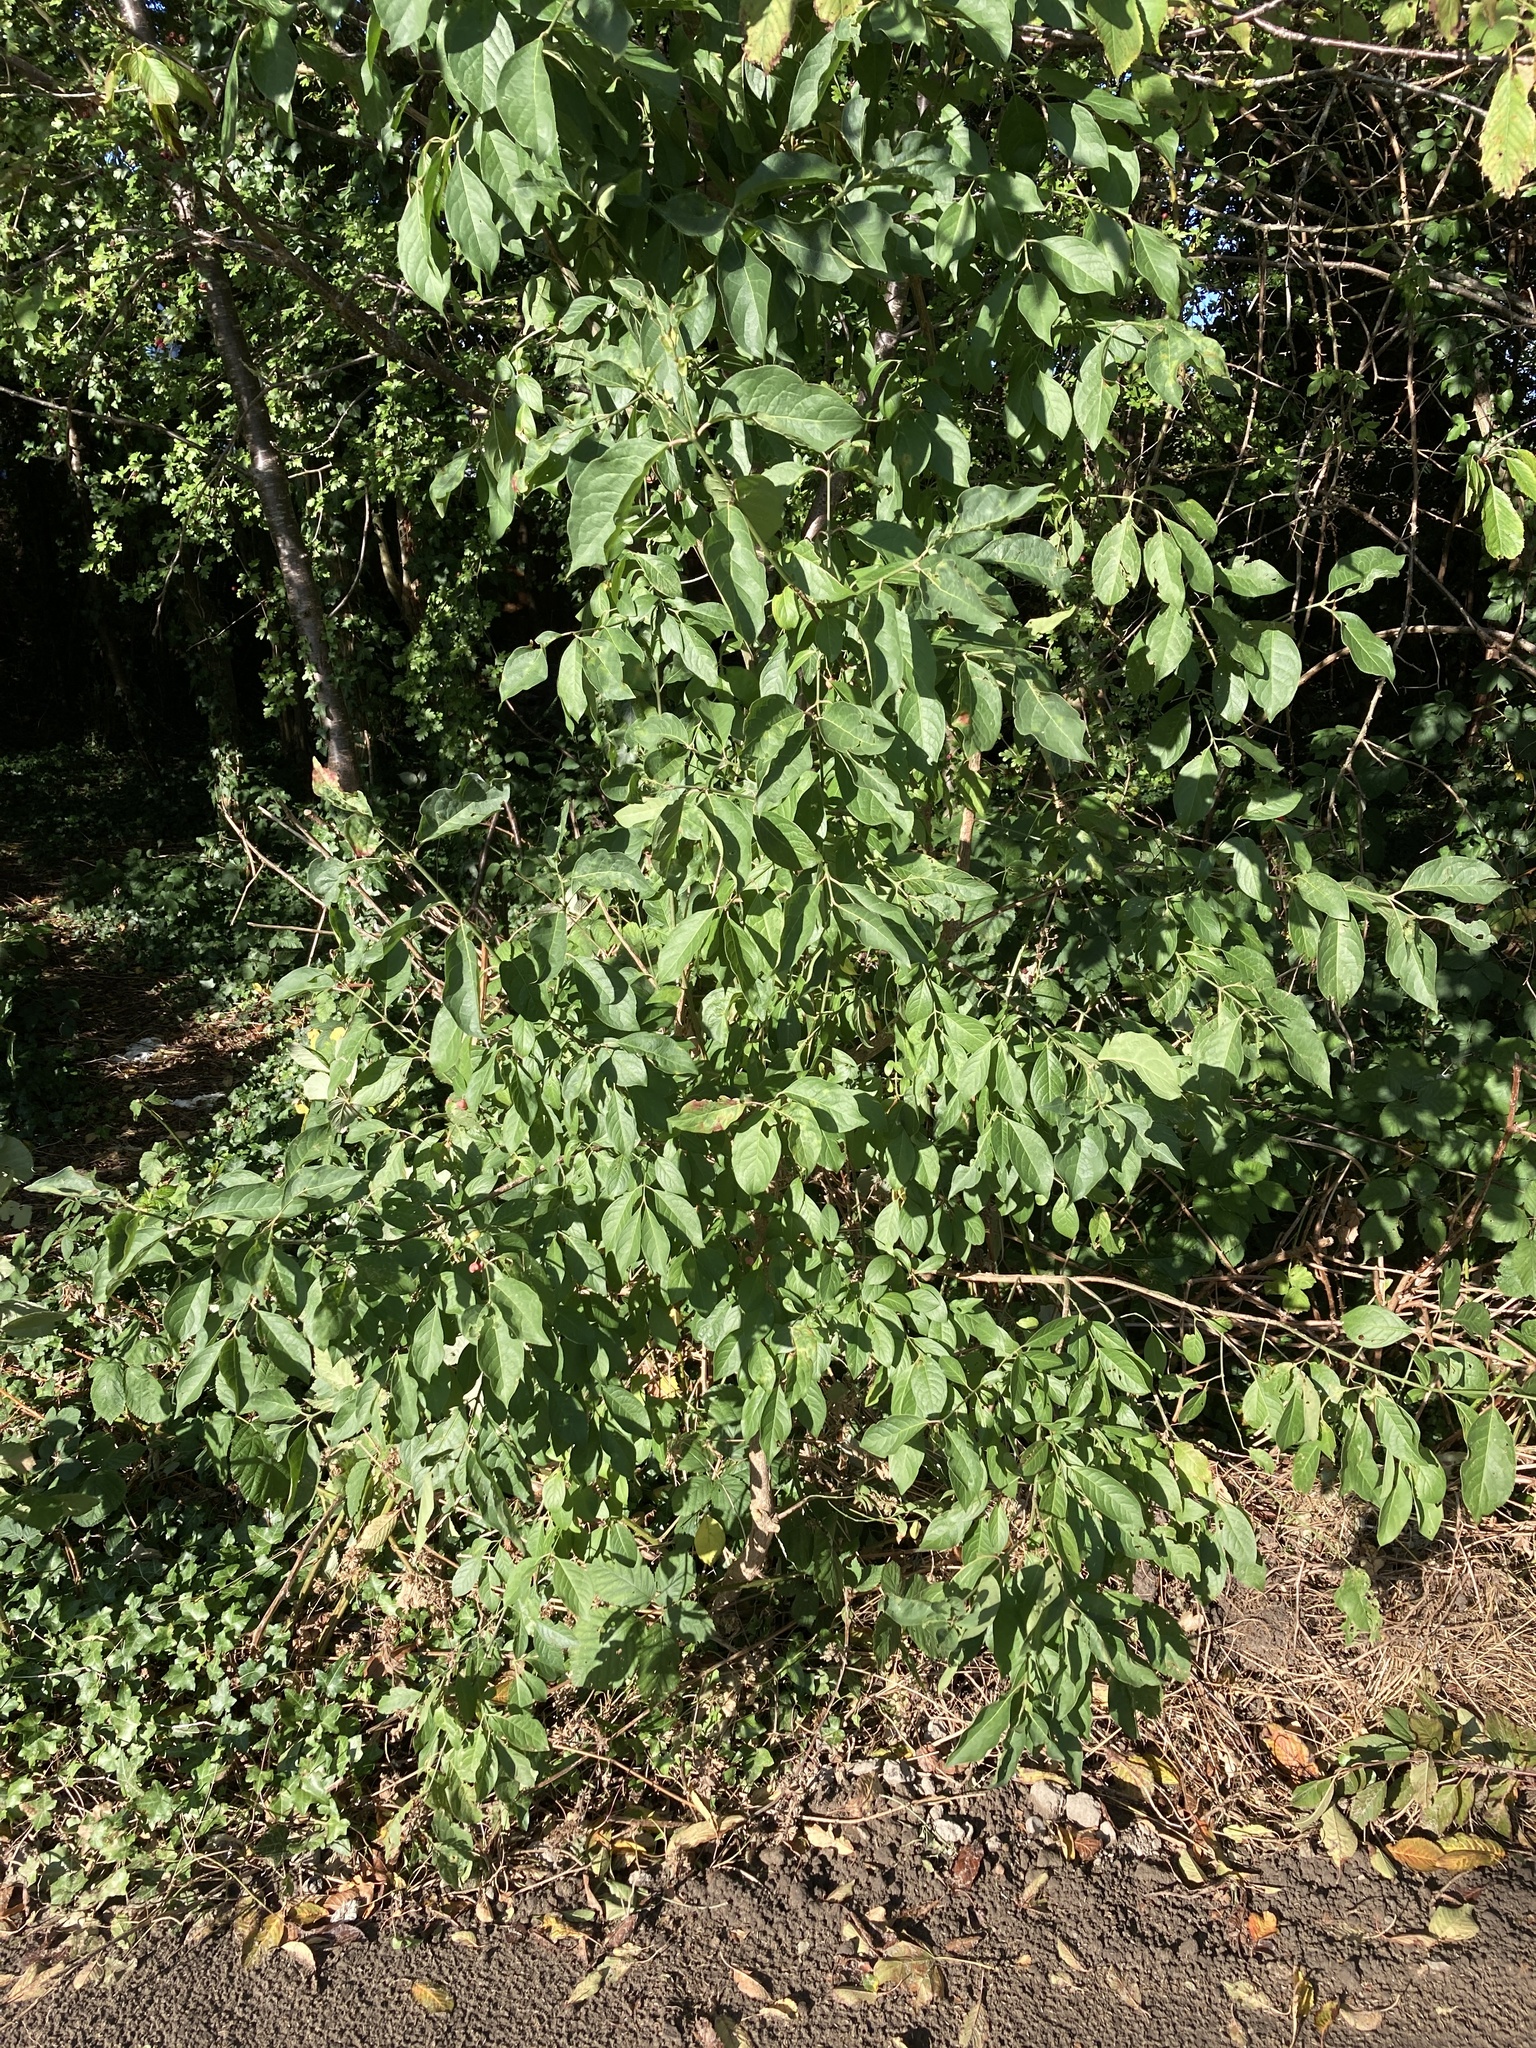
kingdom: Plantae
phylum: Tracheophyta
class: Magnoliopsida
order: Celastrales
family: Celastraceae
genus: Euonymus
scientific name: Euonymus europaeus
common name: Spindle
